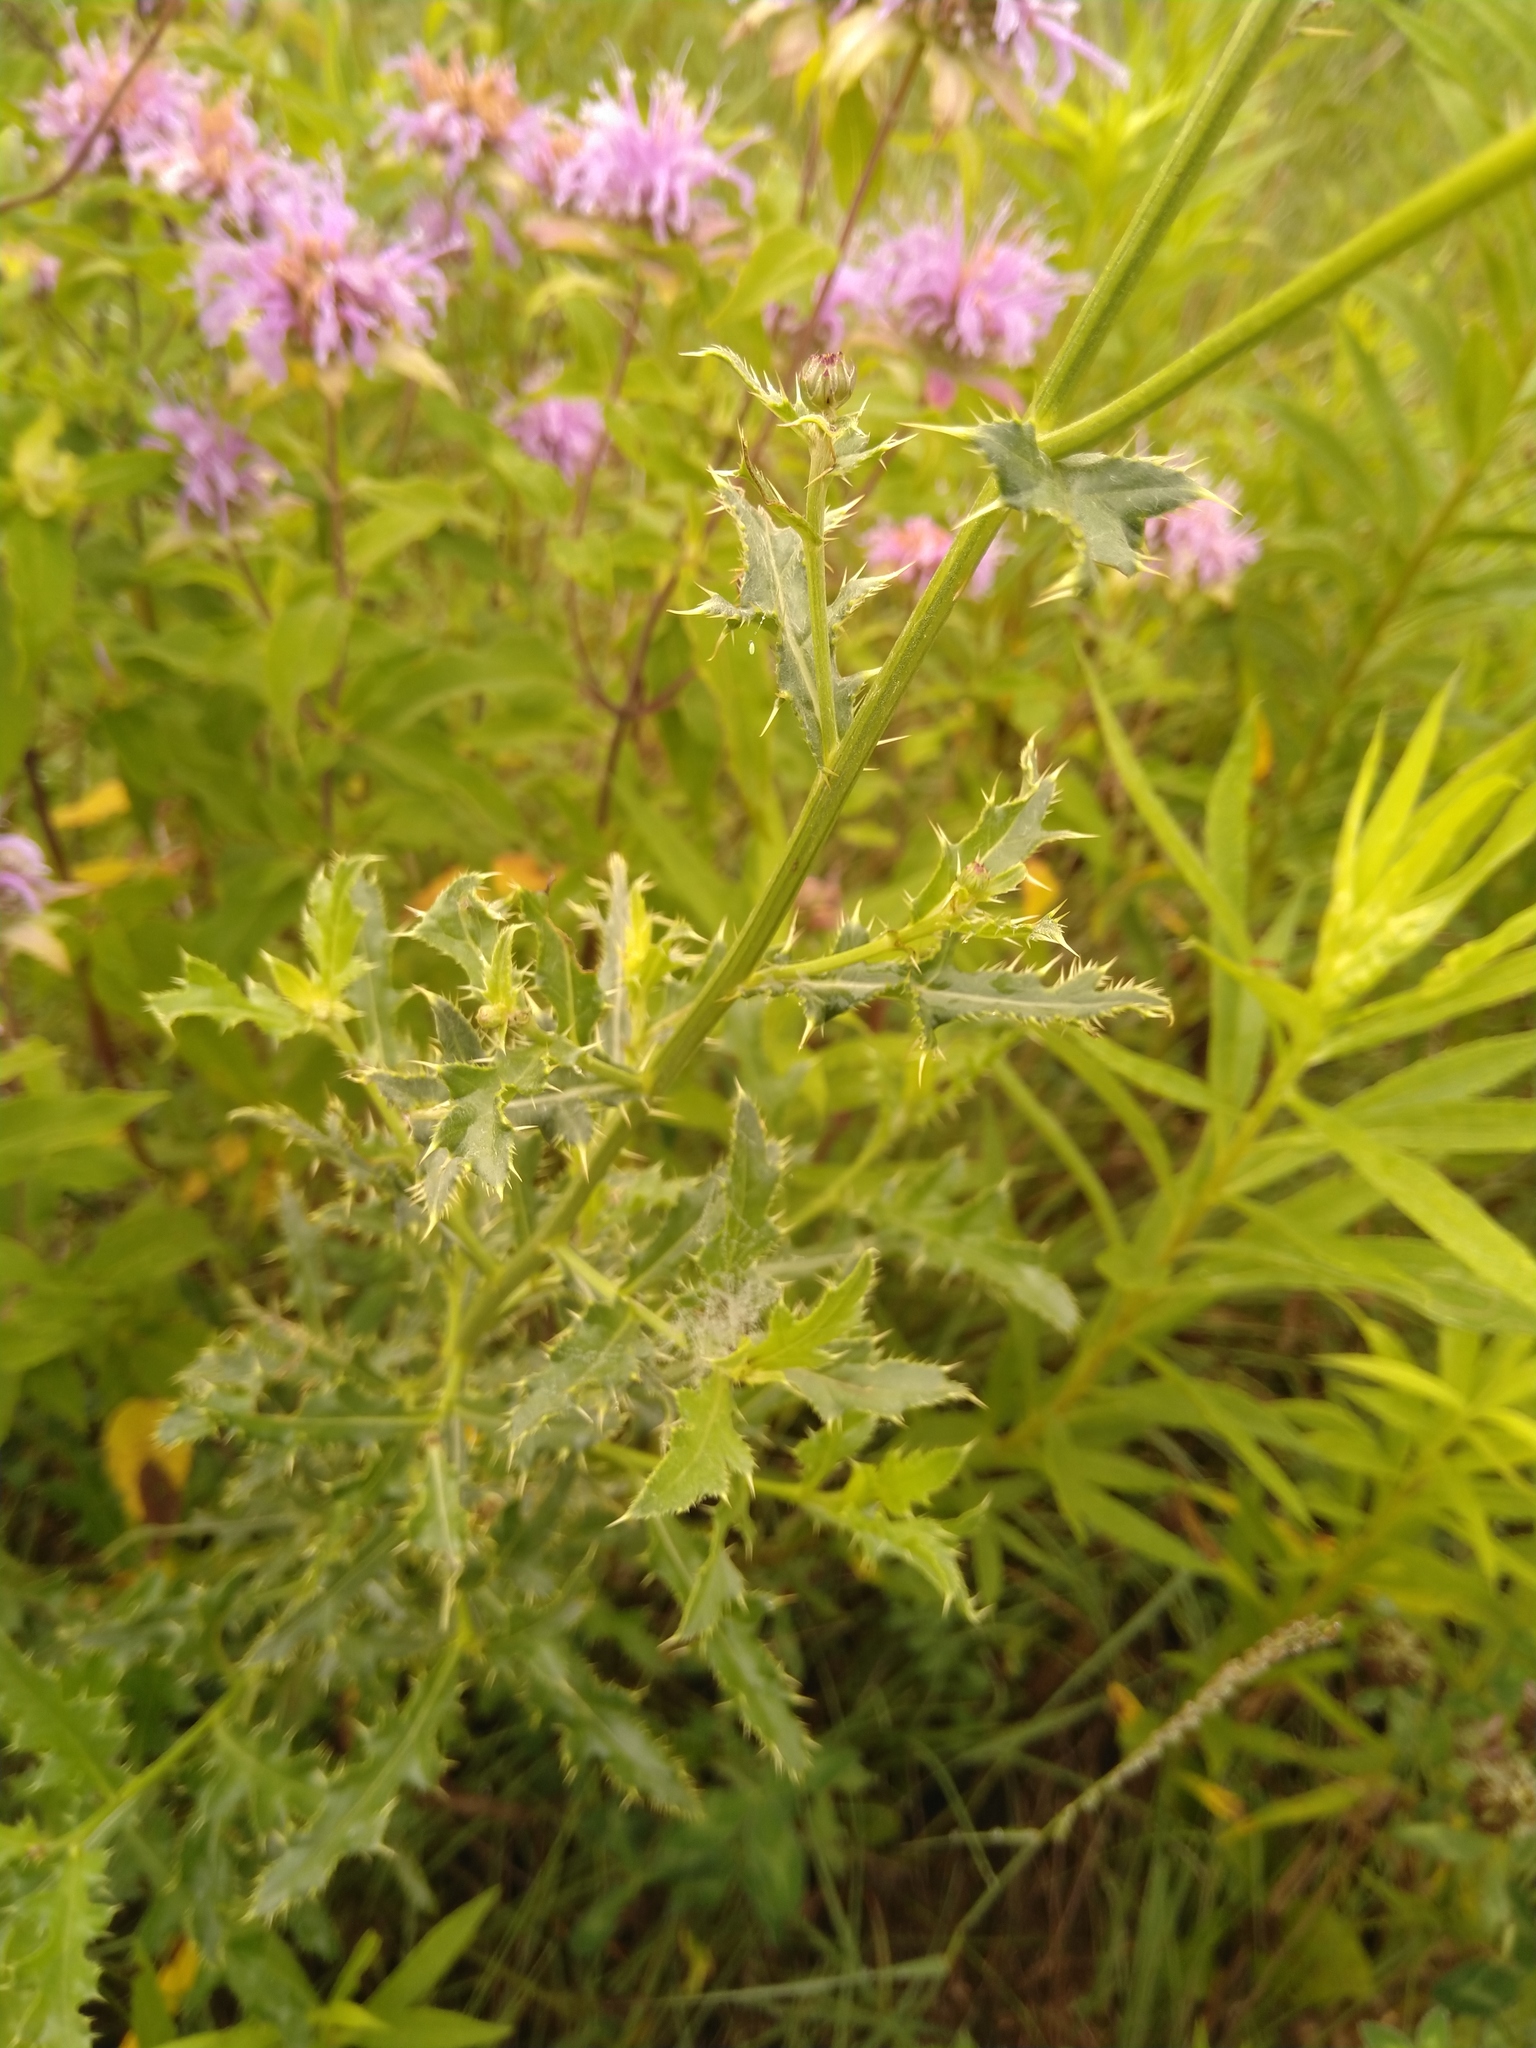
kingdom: Plantae
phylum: Tracheophyta
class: Magnoliopsida
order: Asterales
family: Asteraceae
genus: Cirsium
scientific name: Cirsium arvense
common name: Creeping thistle
